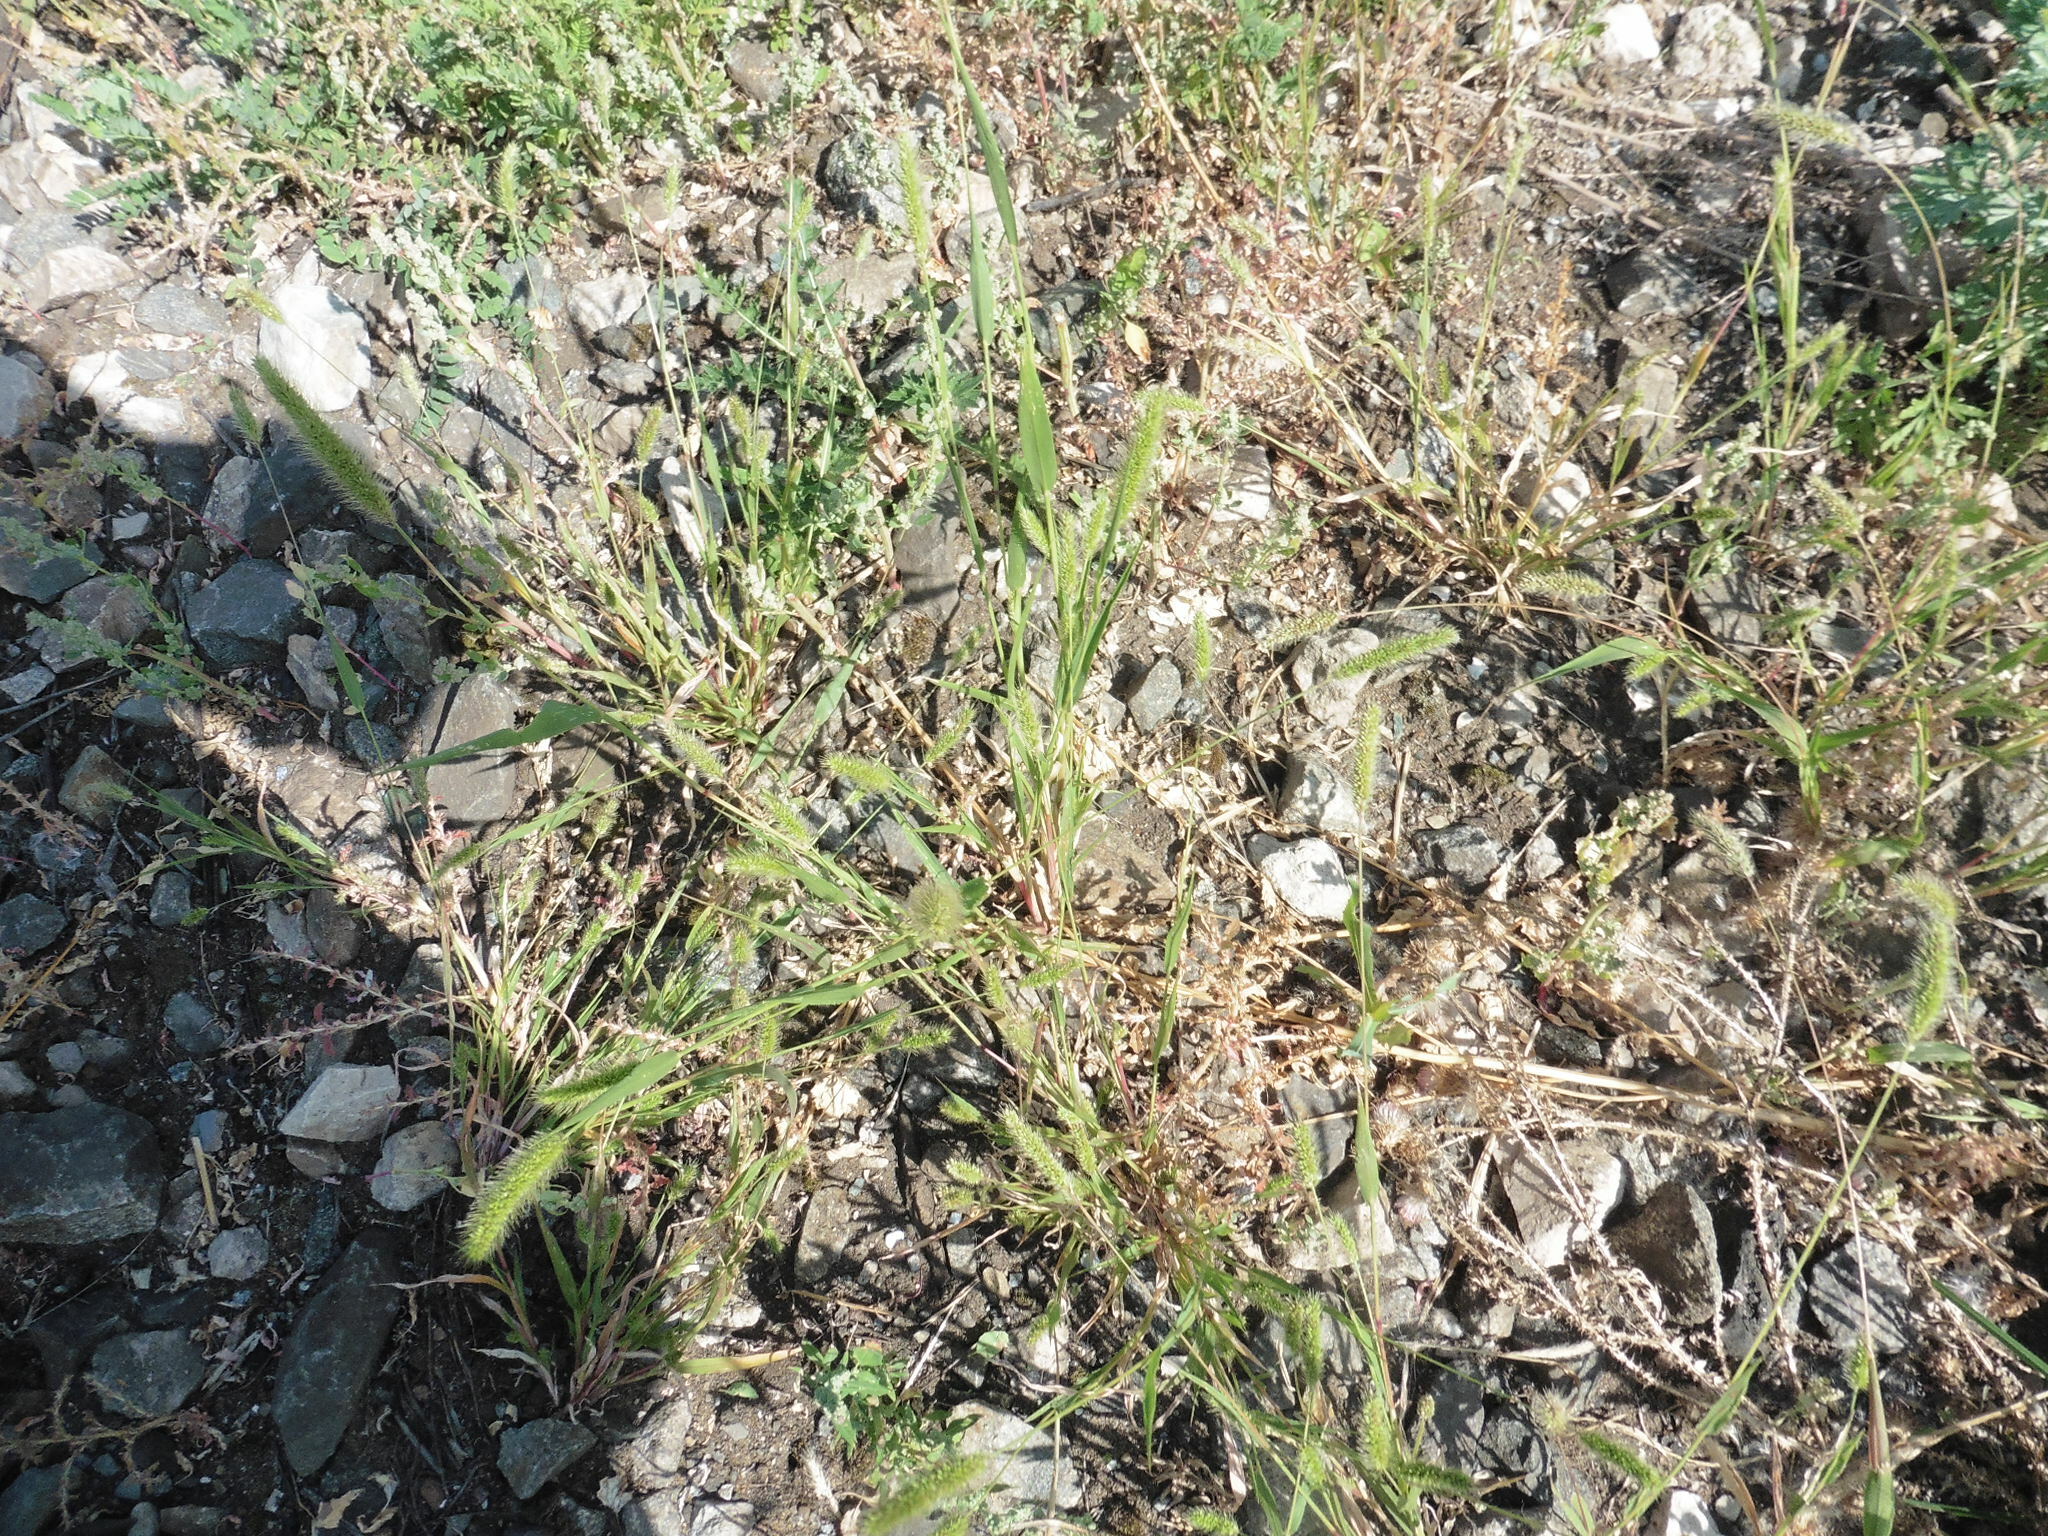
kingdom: Plantae
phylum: Tracheophyta
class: Liliopsida
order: Poales
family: Poaceae
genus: Setaria
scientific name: Setaria viridis
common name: Green bristlegrass
